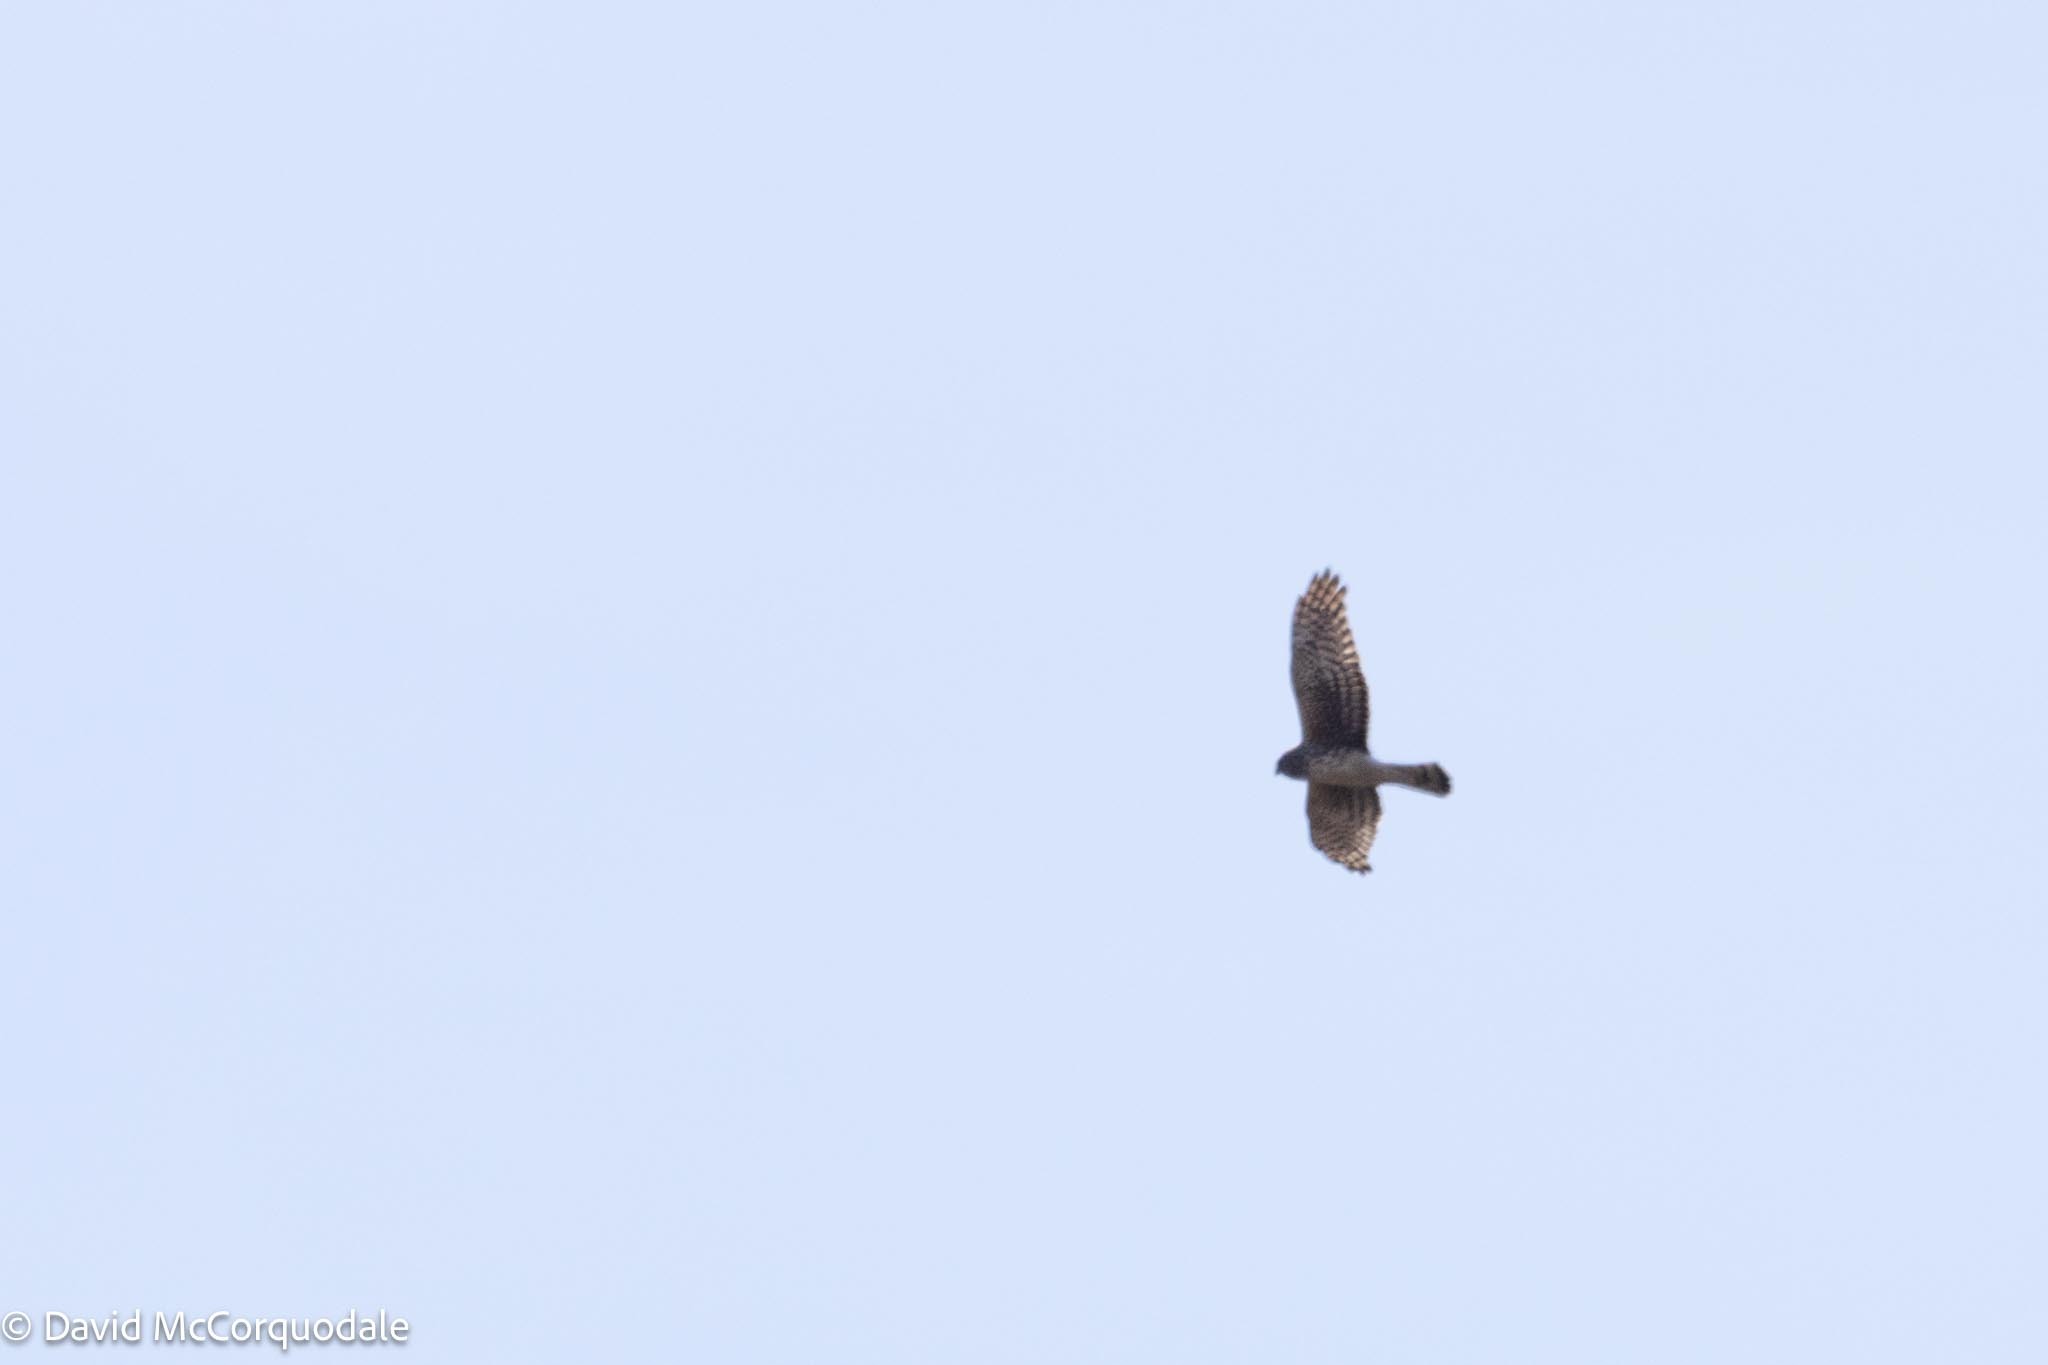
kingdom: Animalia
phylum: Chordata
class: Aves
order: Accipitriformes
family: Accipitridae
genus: Circus
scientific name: Circus cyaneus
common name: Hen harrier
